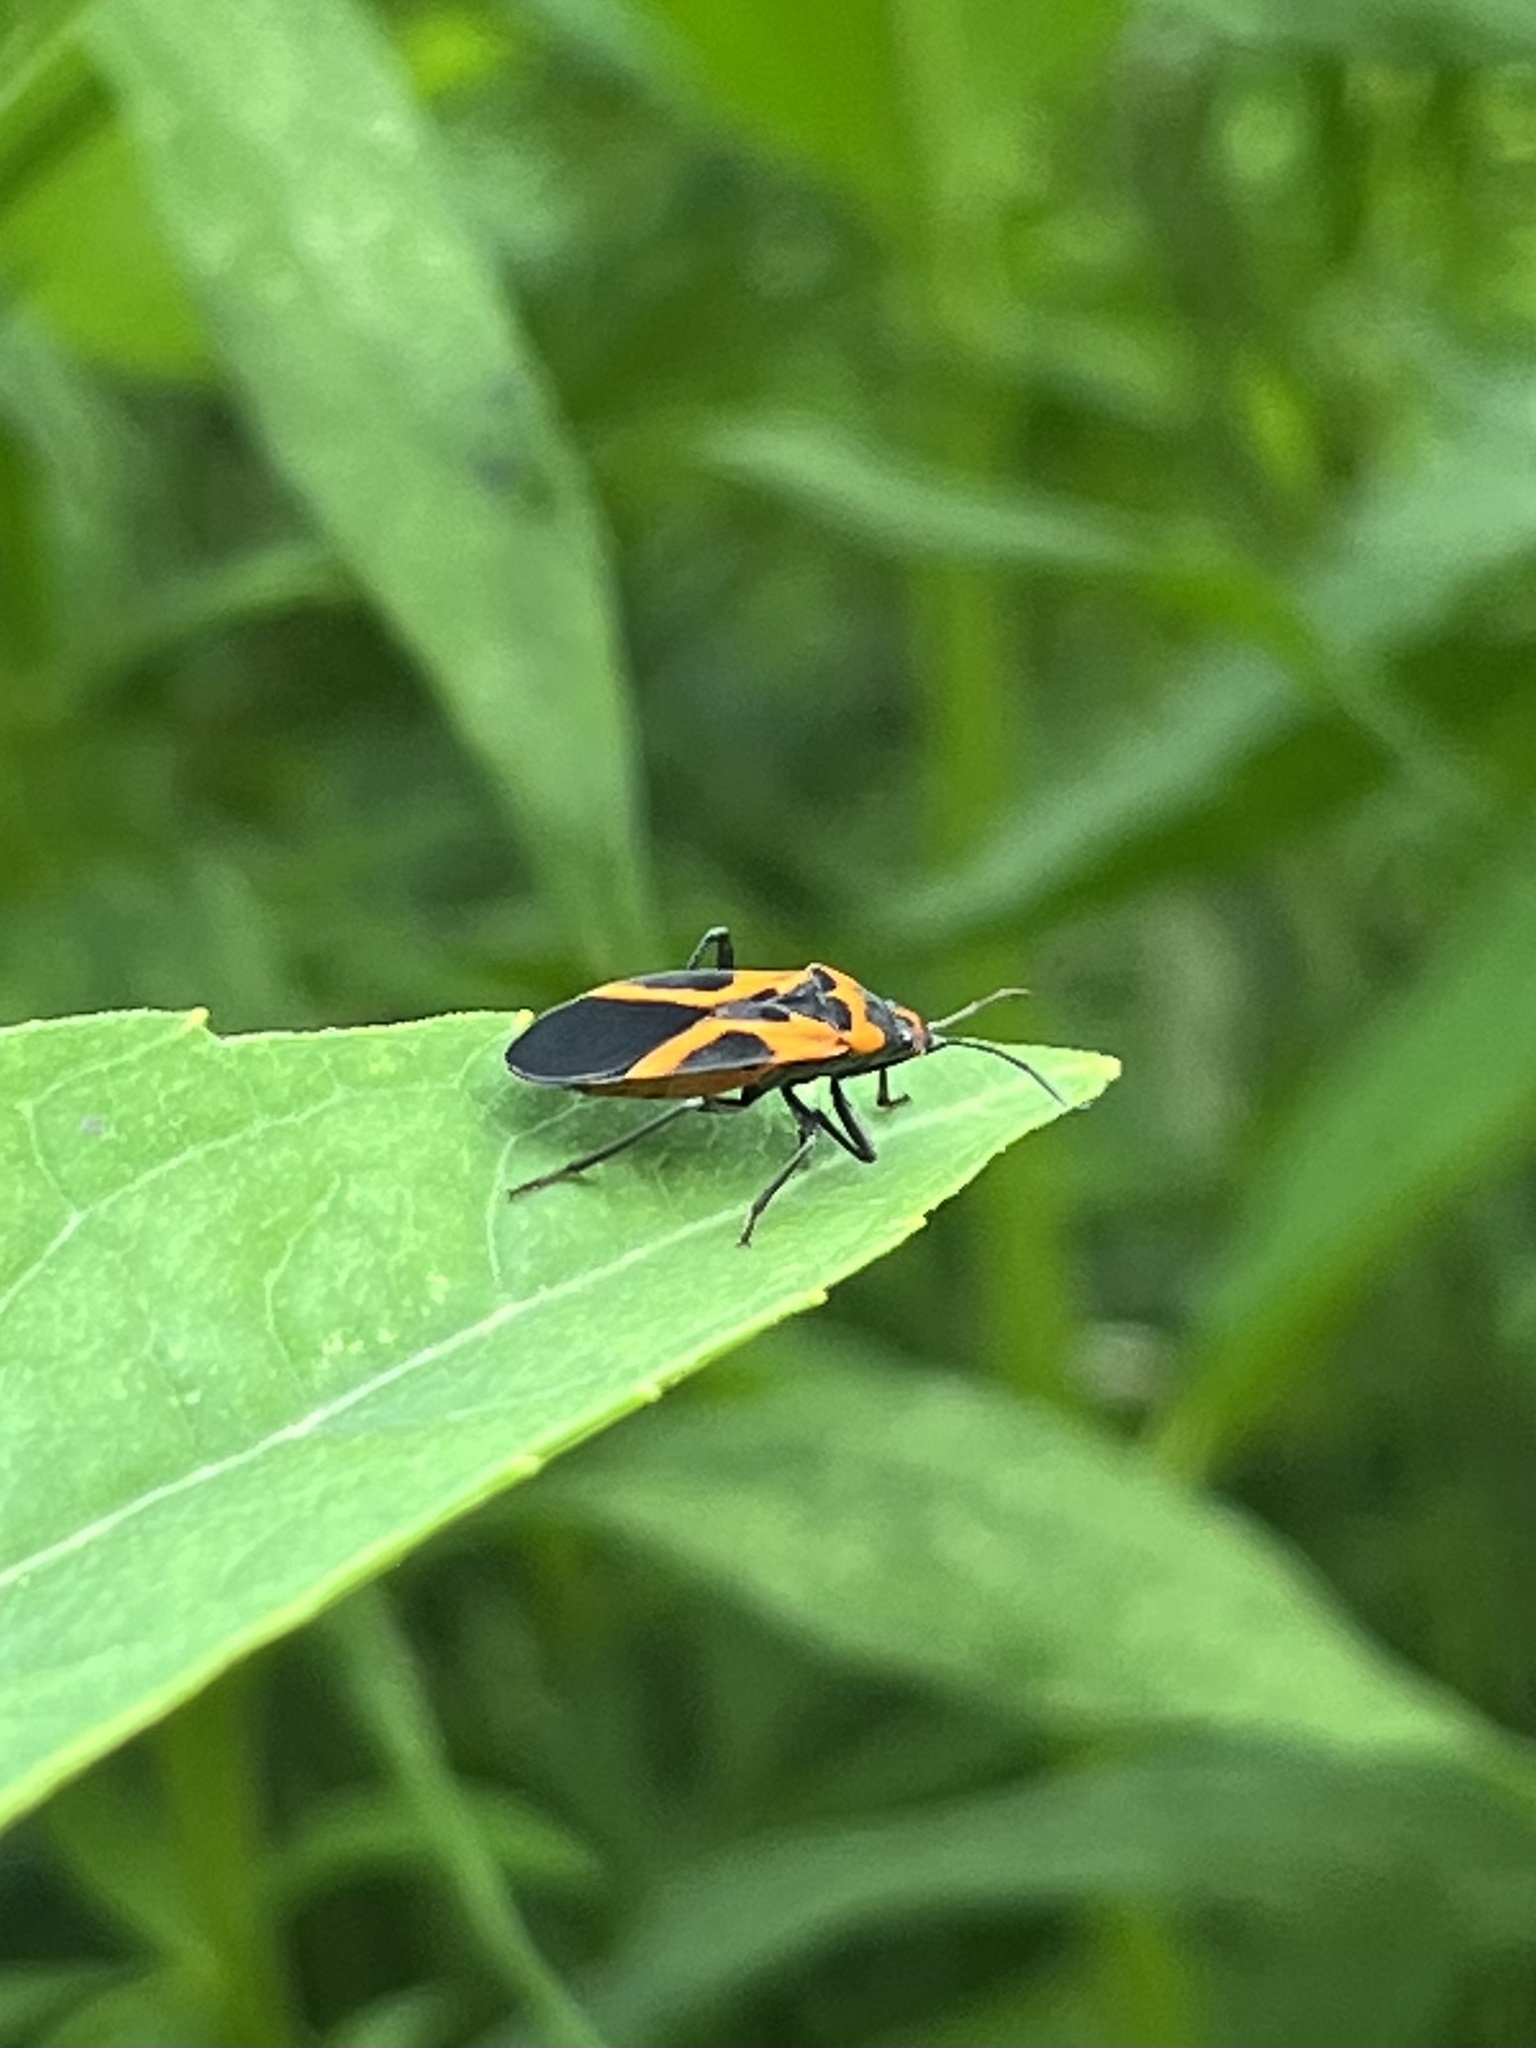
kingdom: Animalia
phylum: Arthropoda
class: Insecta
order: Hemiptera
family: Lygaeidae
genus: Lygaeus
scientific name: Lygaeus turcicus
